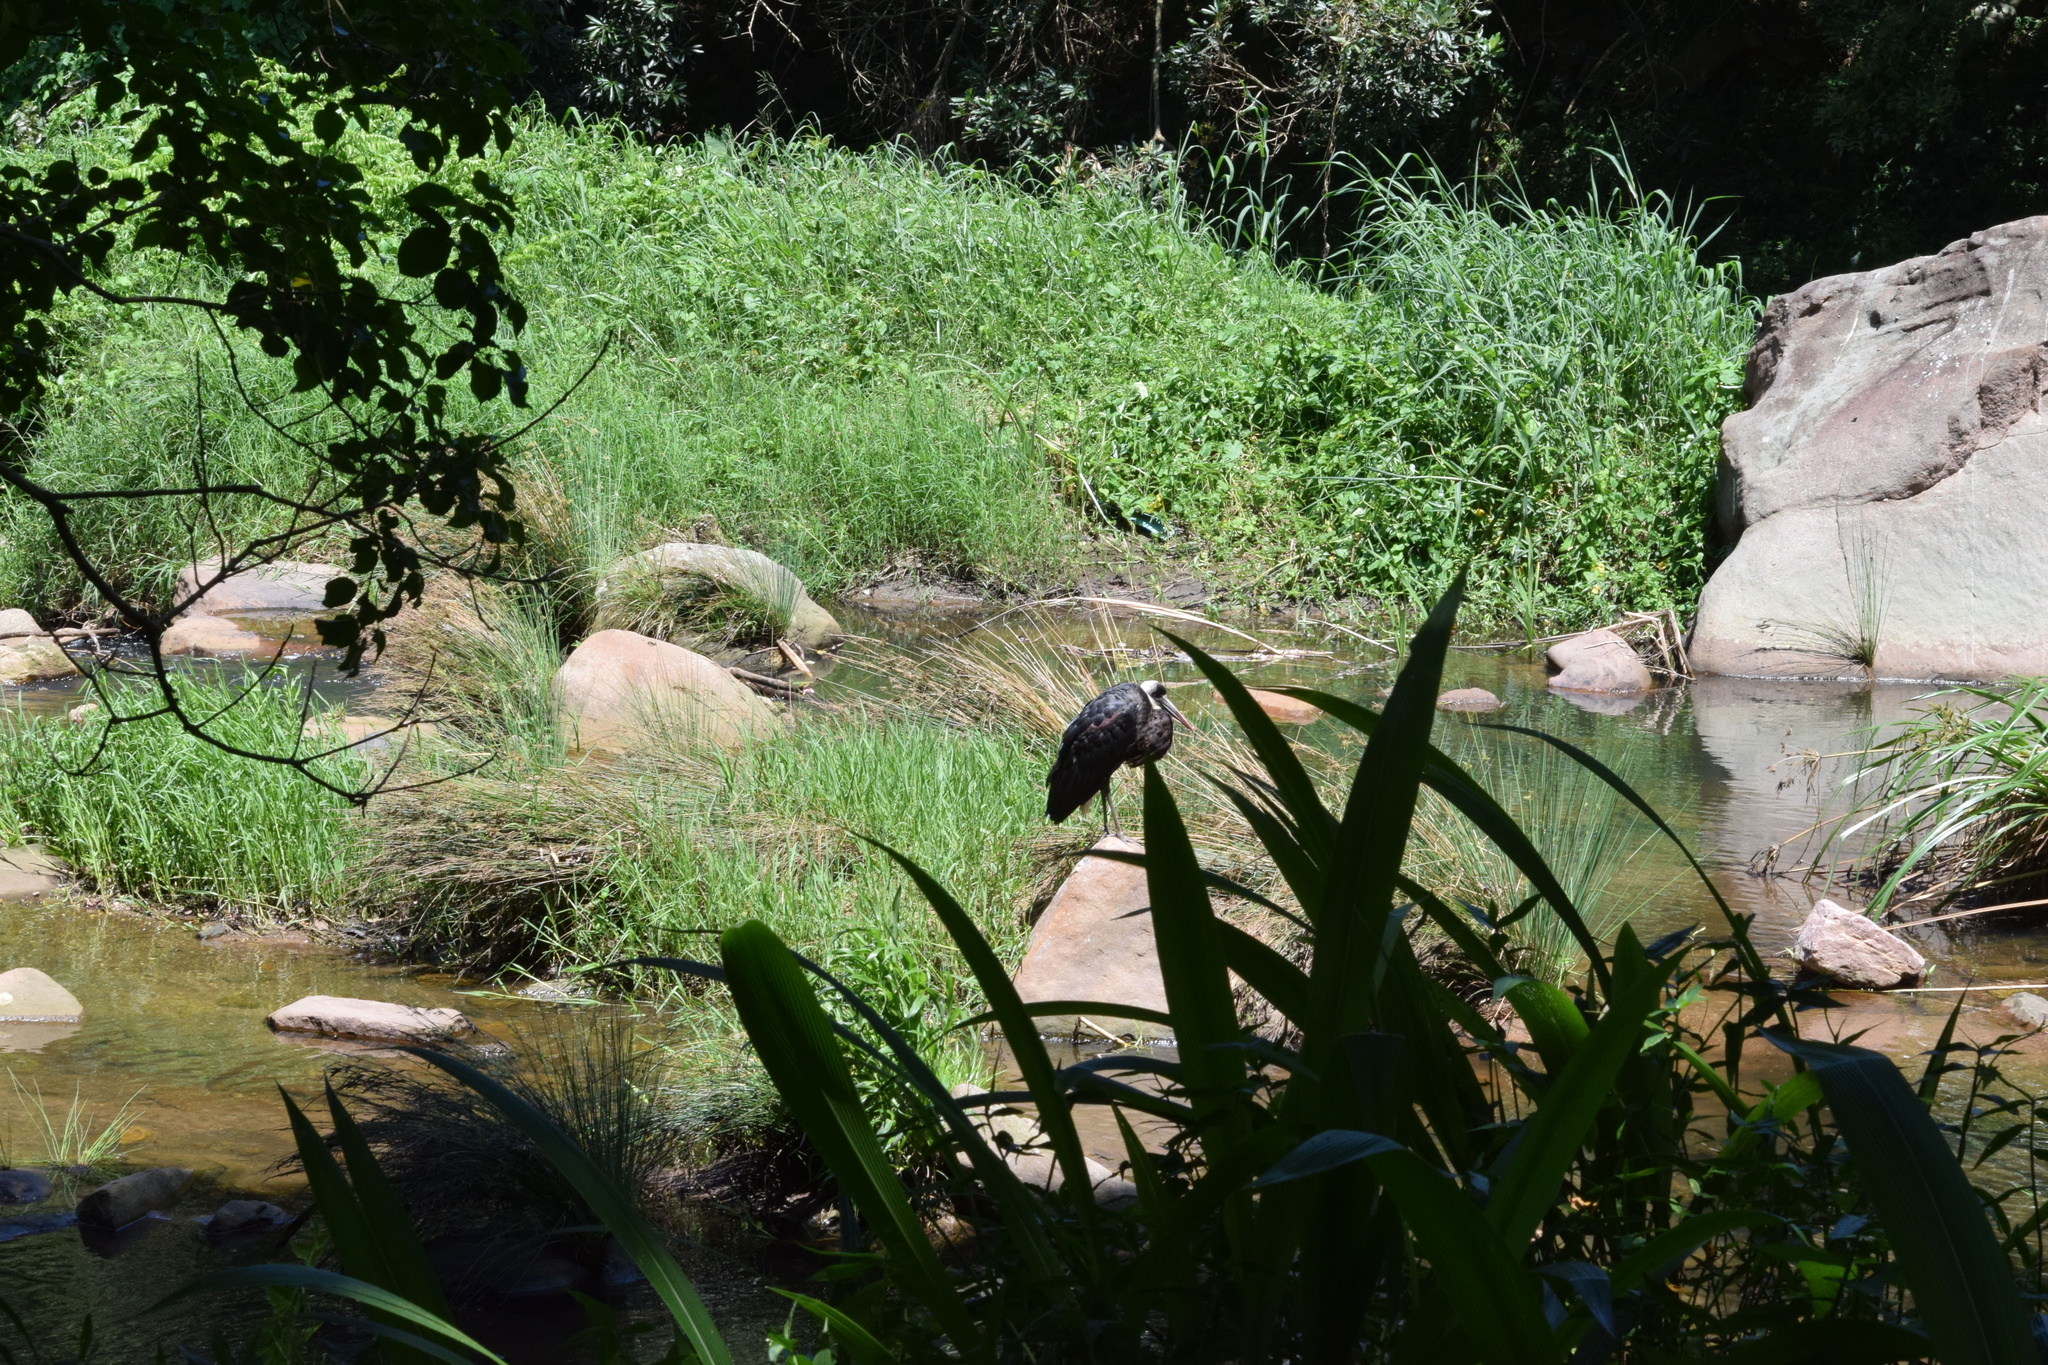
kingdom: Animalia
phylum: Chordata
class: Aves
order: Ciconiiformes
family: Ciconiidae
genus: Ciconia
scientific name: Ciconia microscelis
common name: African woollyneck
